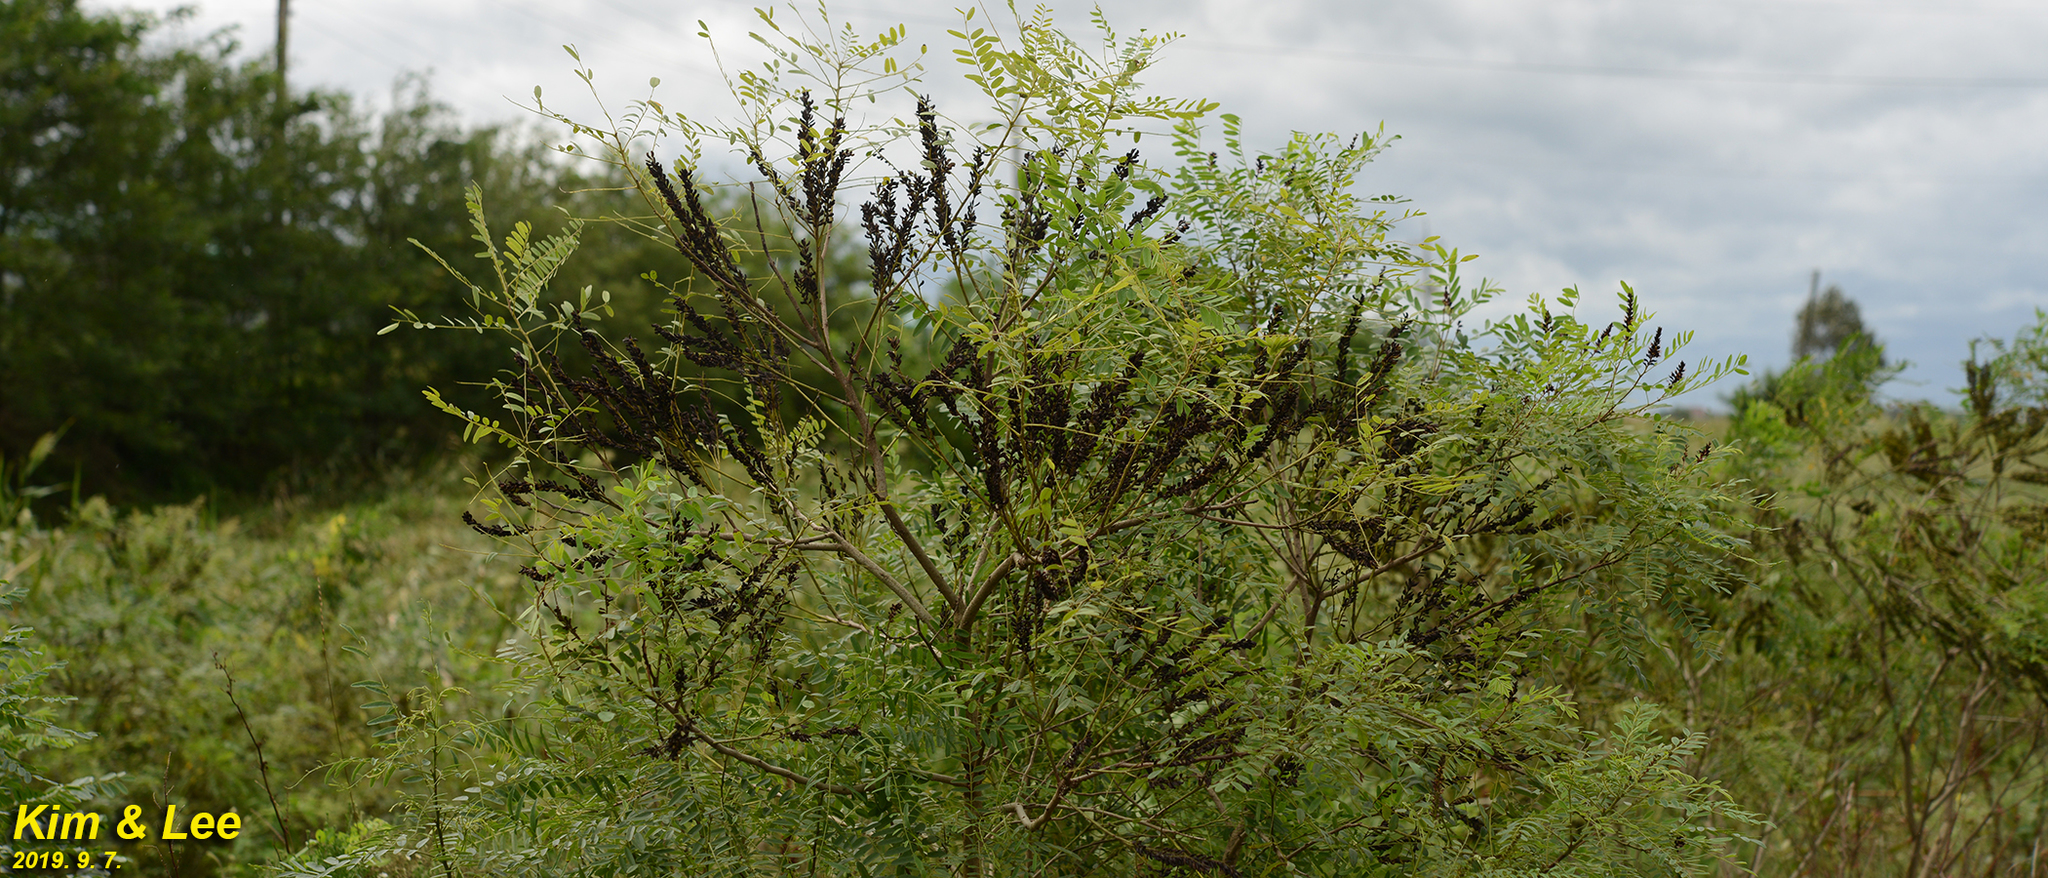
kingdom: Plantae
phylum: Tracheophyta
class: Magnoliopsida
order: Fabales
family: Fabaceae
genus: Amorpha
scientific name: Amorpha fruticosa
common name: False indigo
